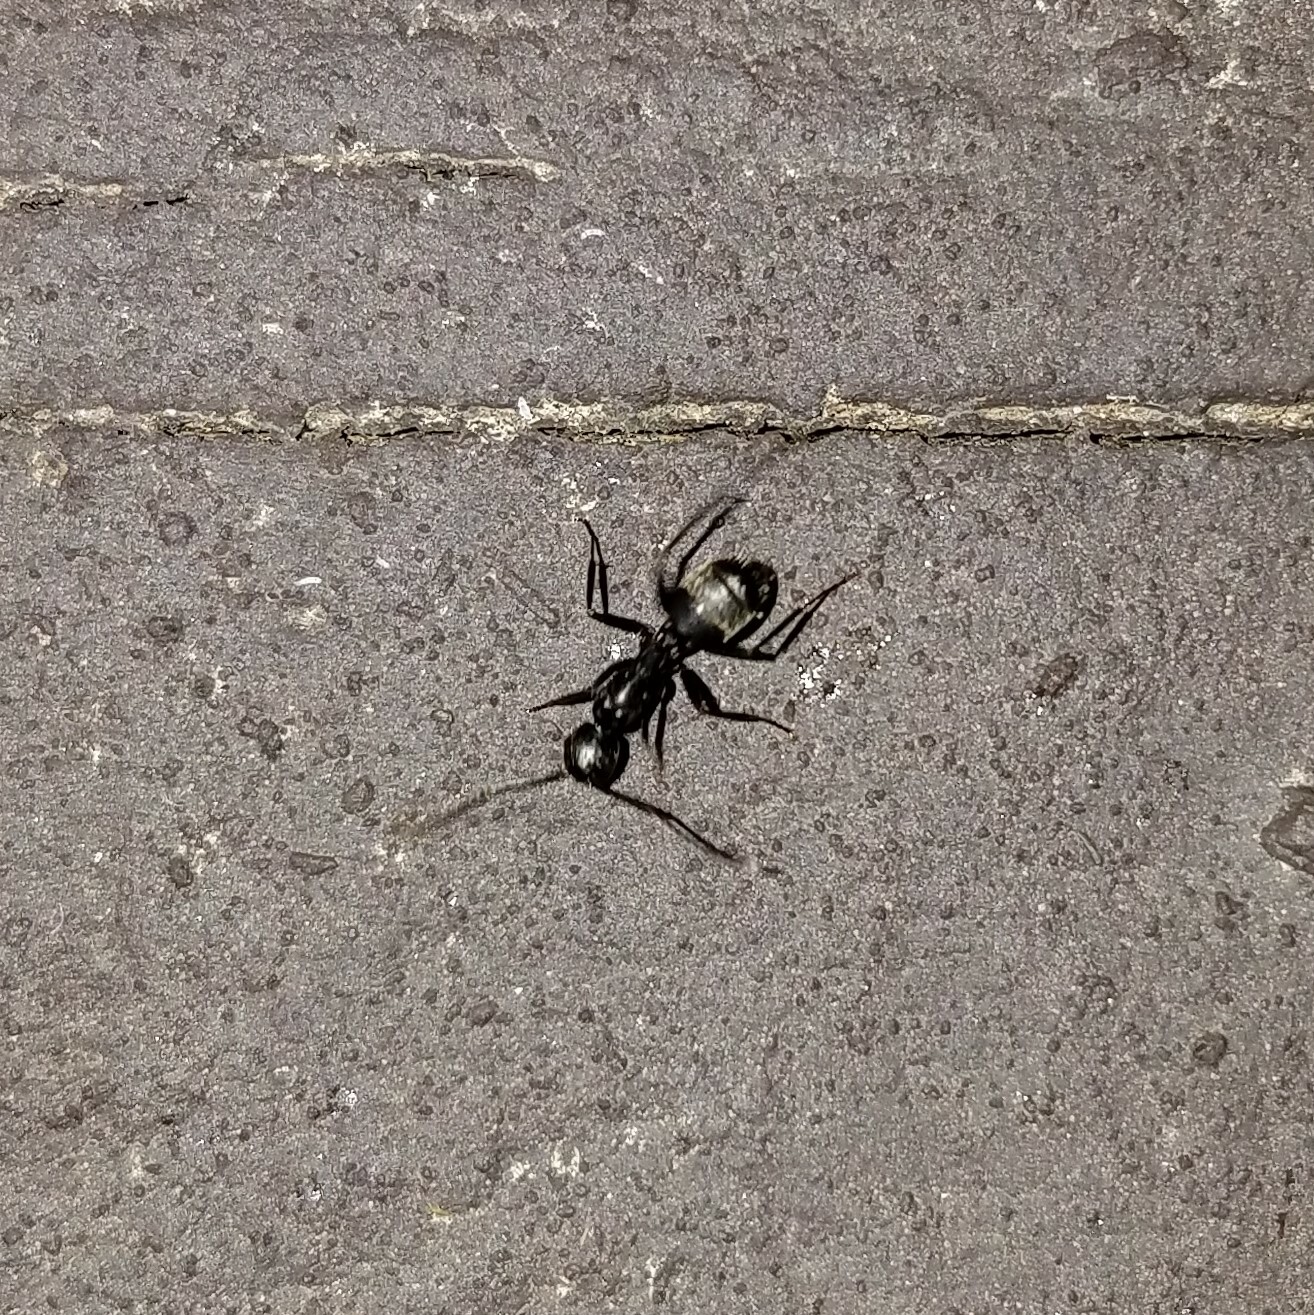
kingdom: Animalia
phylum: Arthropoda
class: Insecta
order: Hymenoptera
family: Formicidae
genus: Camponotus
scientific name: Camponotus pennsylvanicus
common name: Black carpenter ant
